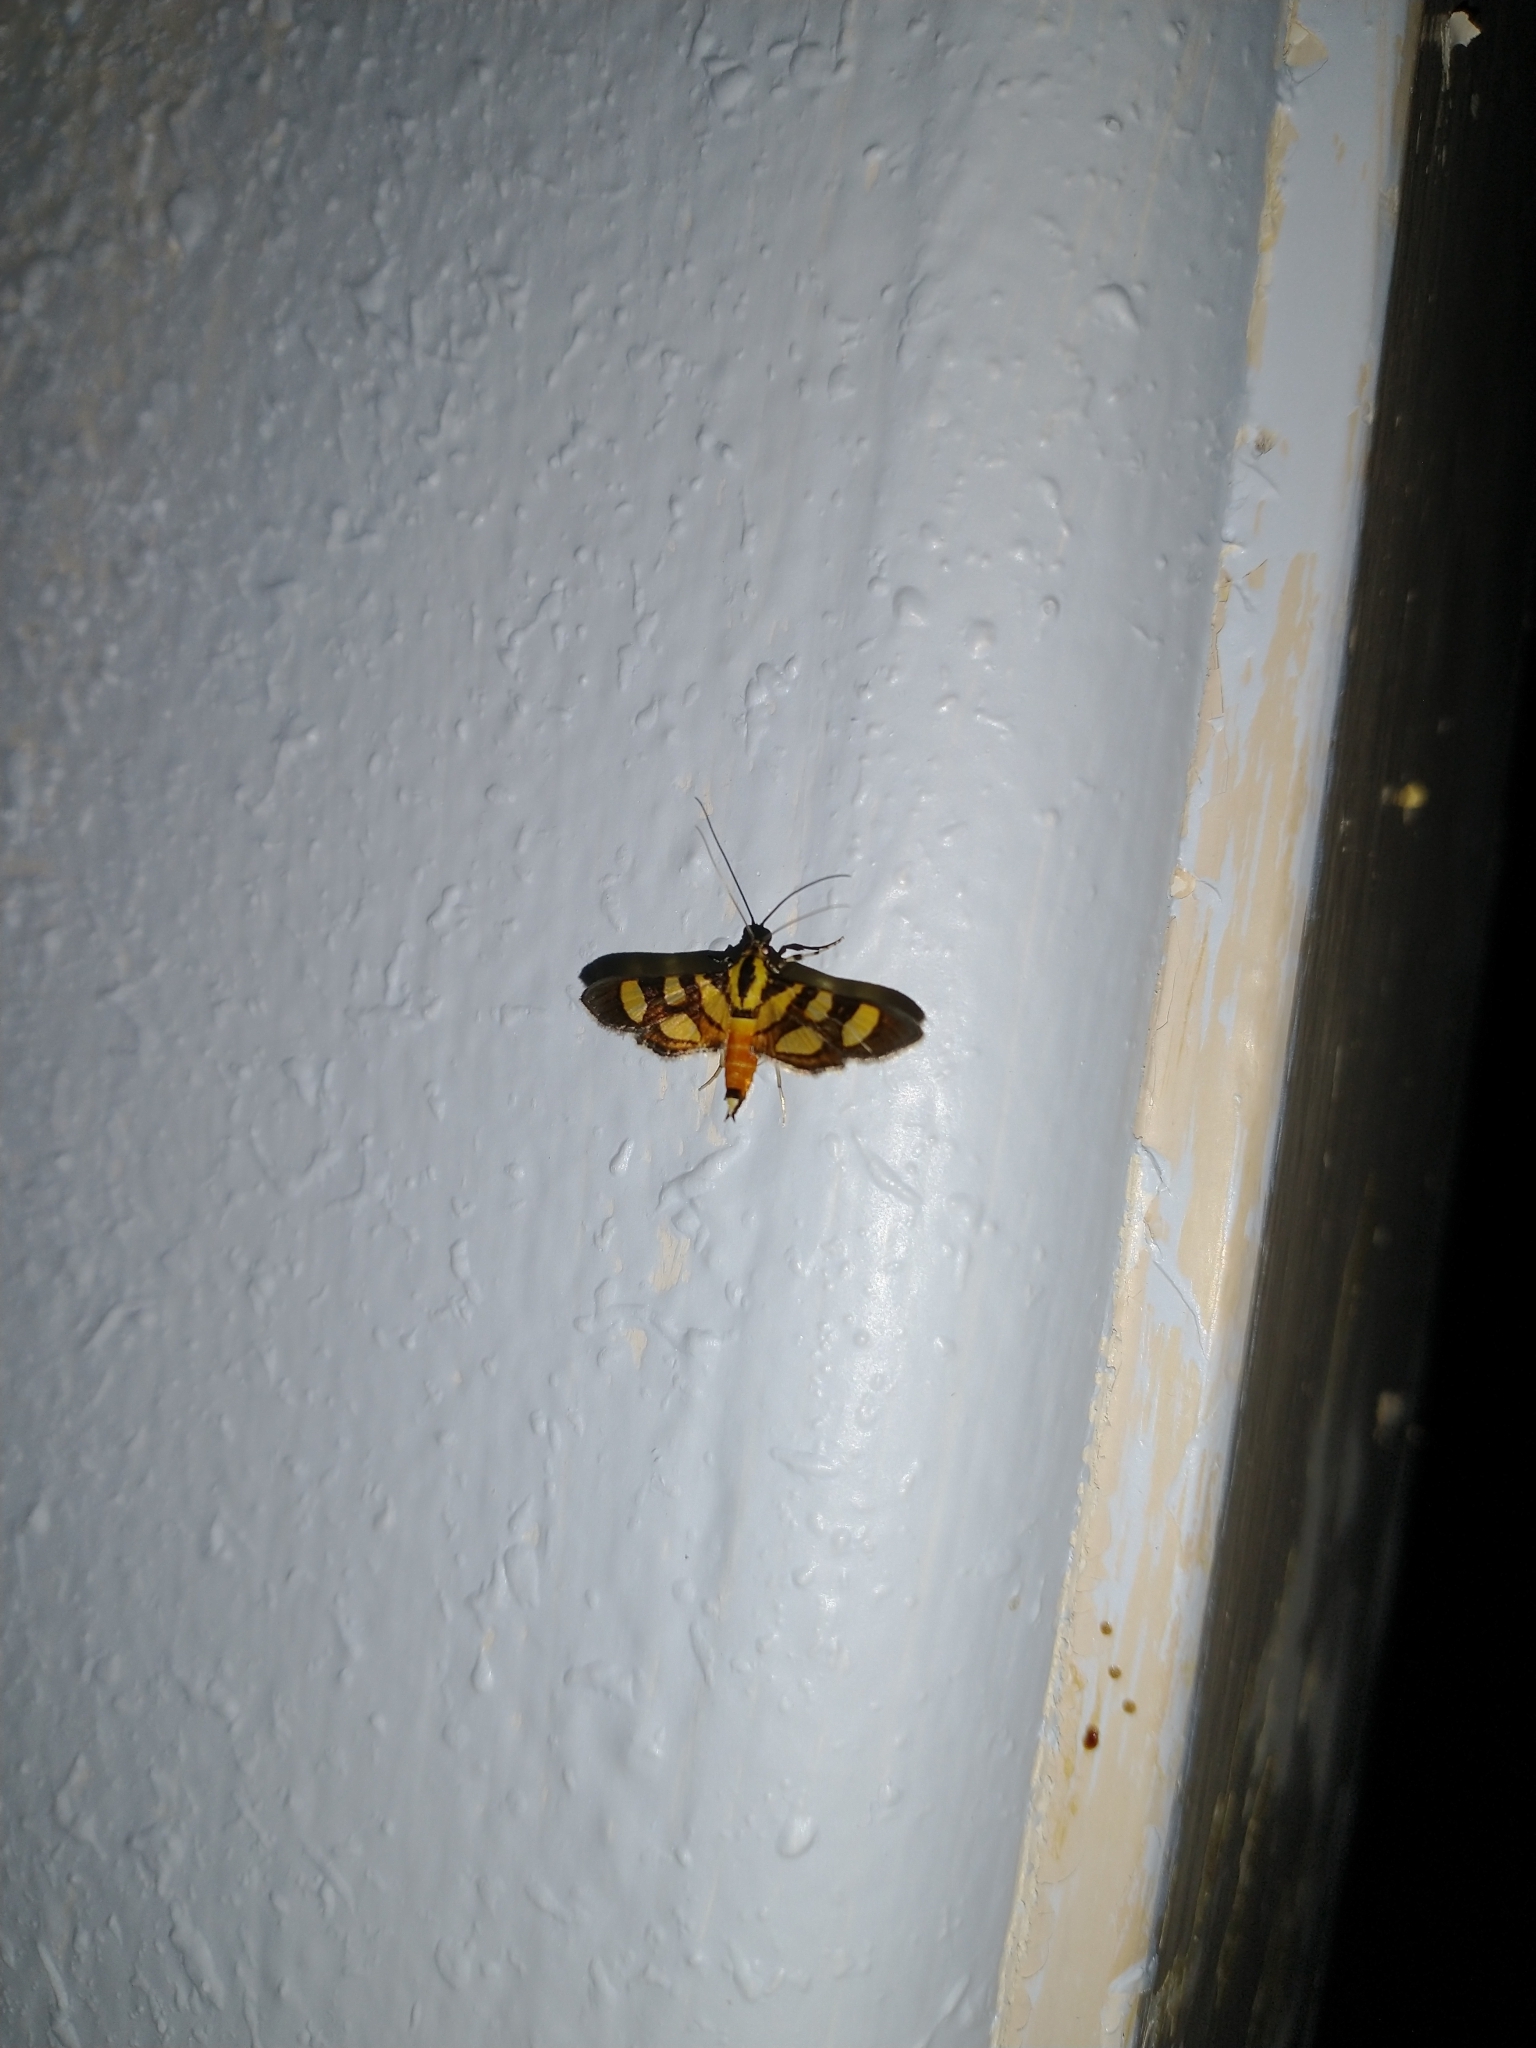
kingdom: Animalia
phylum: Arthropoda
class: Insecta
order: Lepidoptera
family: Crambidae
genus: Syngamia
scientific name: Syngamia florella
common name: Orange-spotted flower moth
